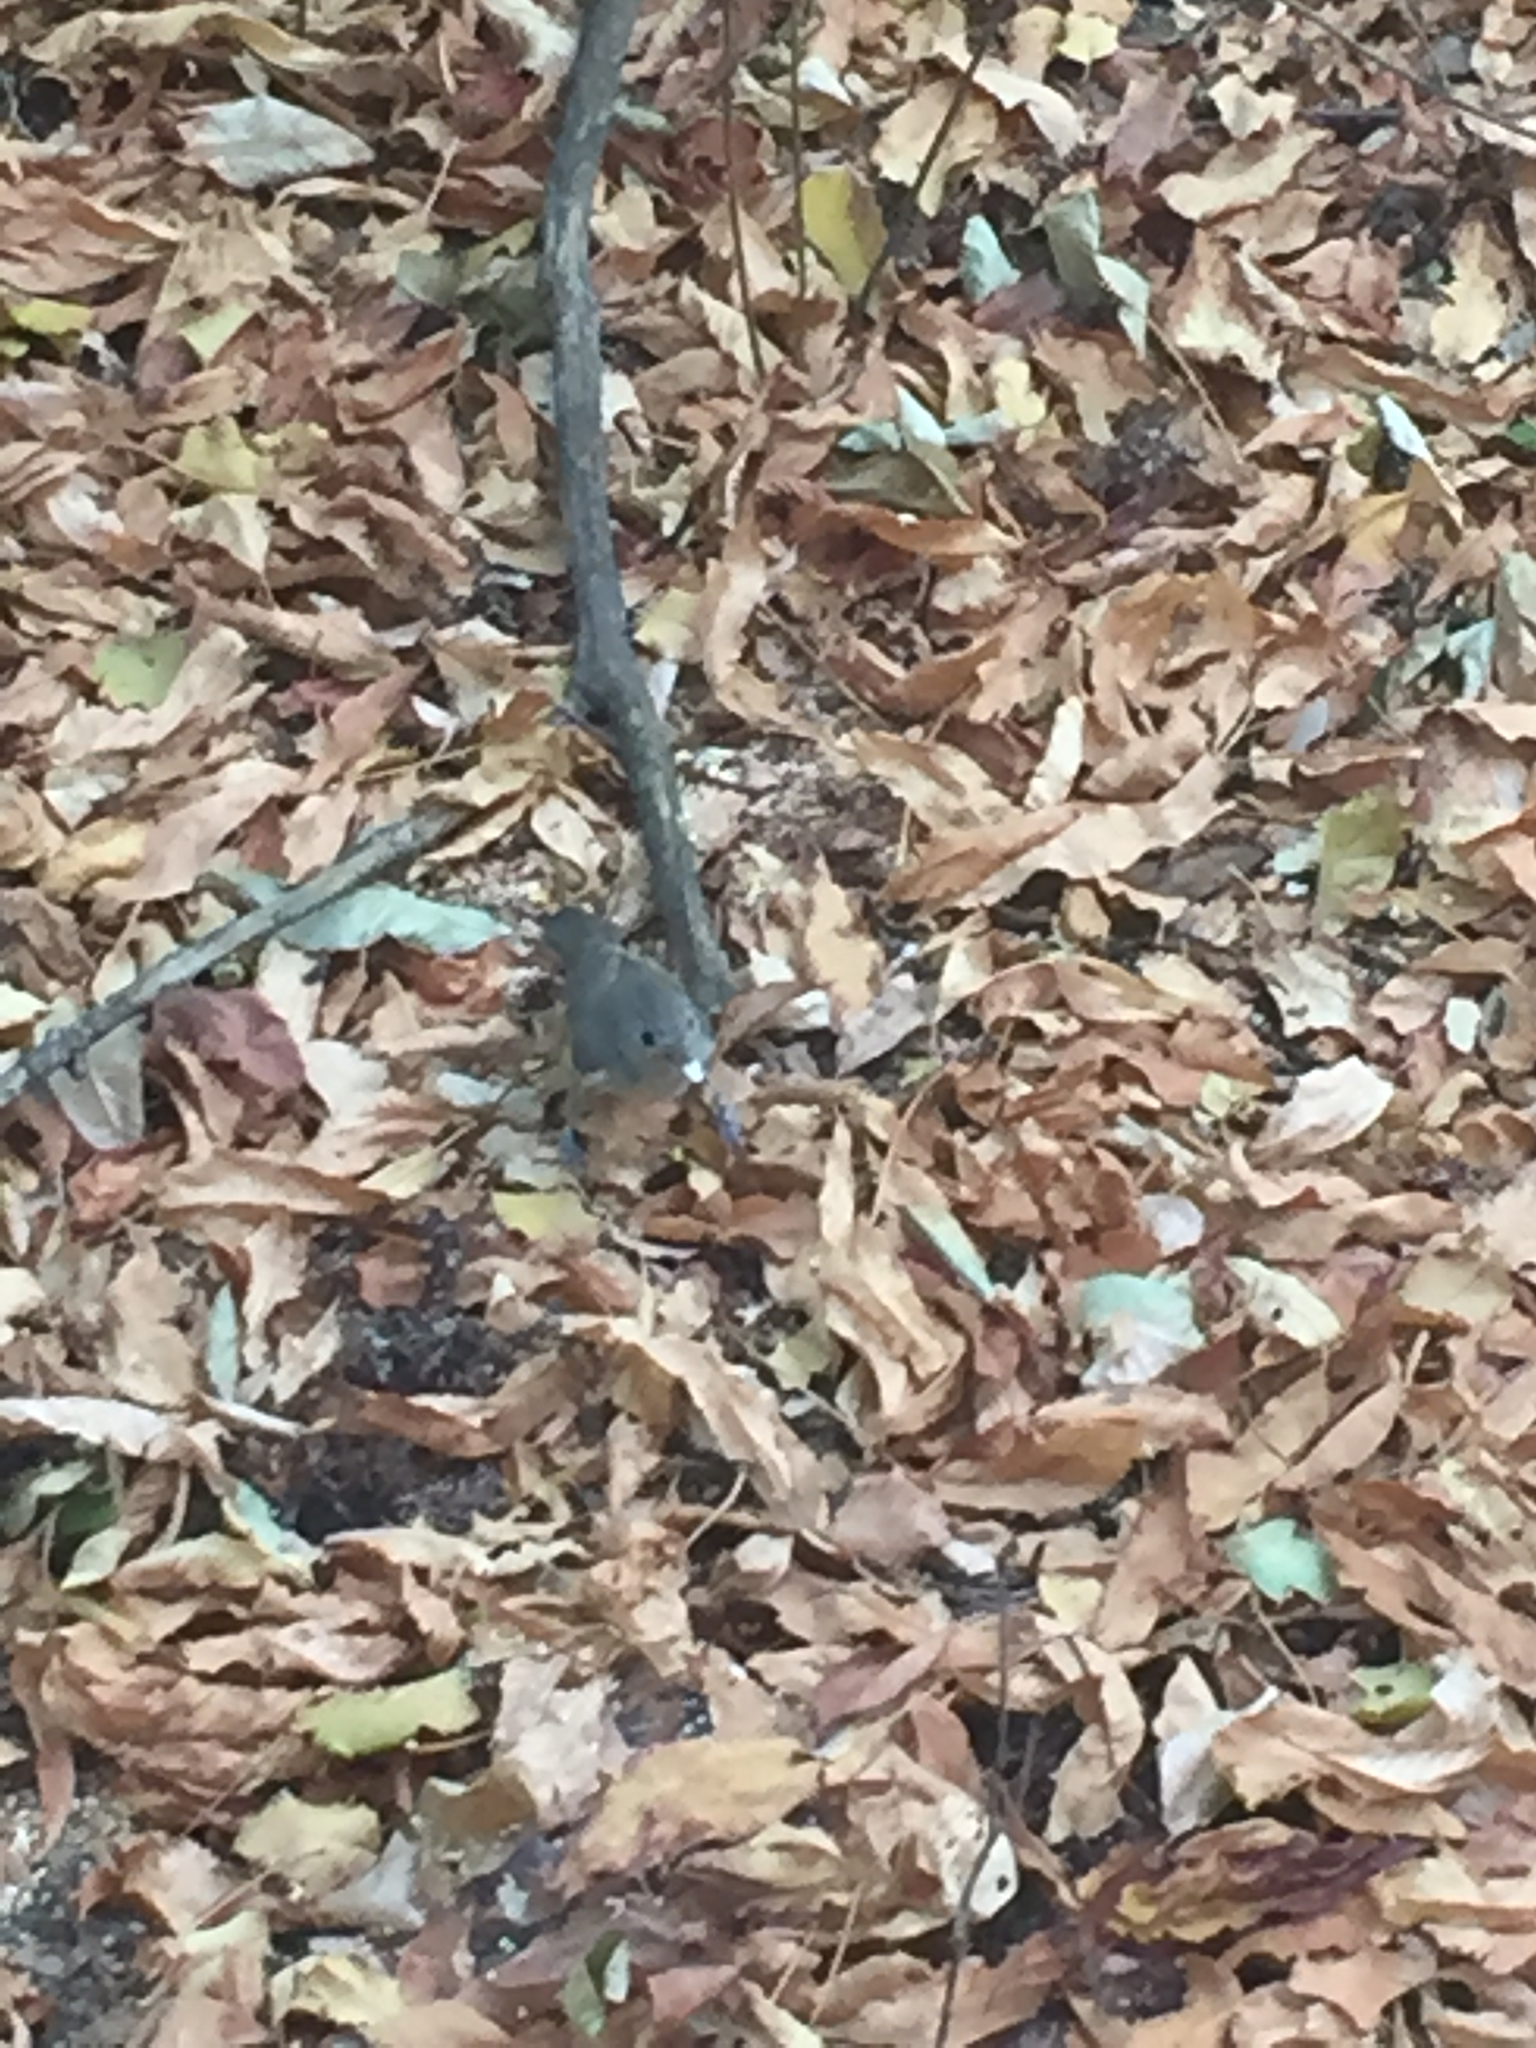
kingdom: Animalia
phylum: Chordata
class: Aves
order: Passeriformes
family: Paridae
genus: Baeolophus
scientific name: Baeolophus inornatus
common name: Oak titmouse
